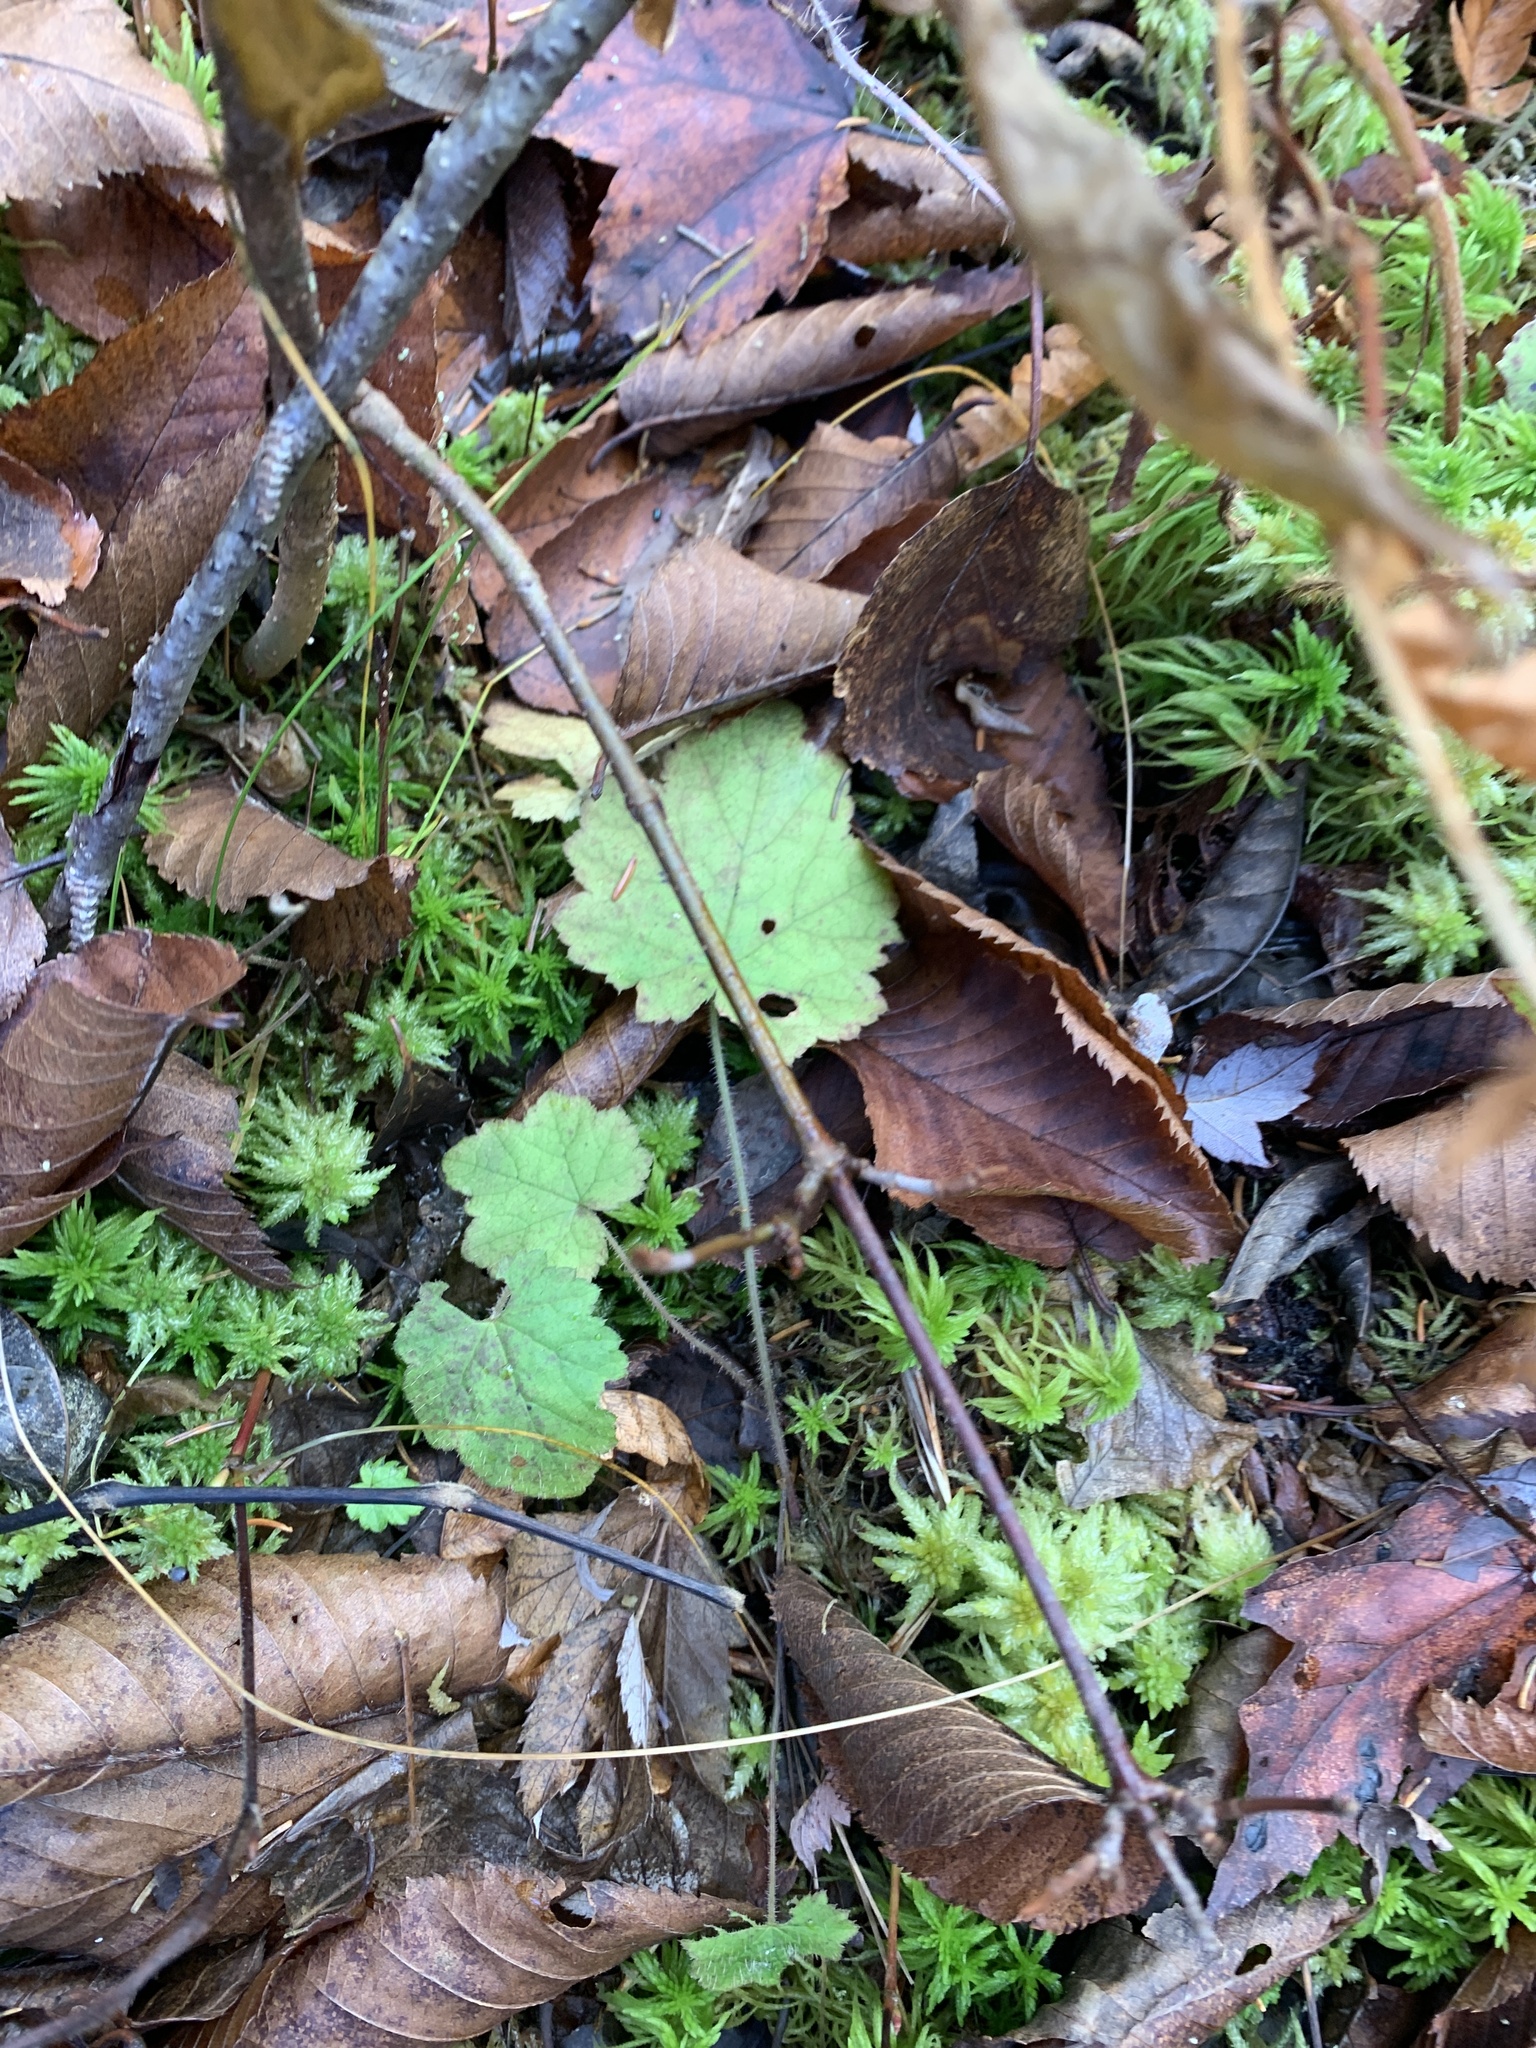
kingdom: Plantae
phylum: Tracheophyta
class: Magnoliopsida
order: Saxifragales
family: Saxifragaceae
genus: Tiarella
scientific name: Tiarella stolonifera
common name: Stoloniferous foamflower
